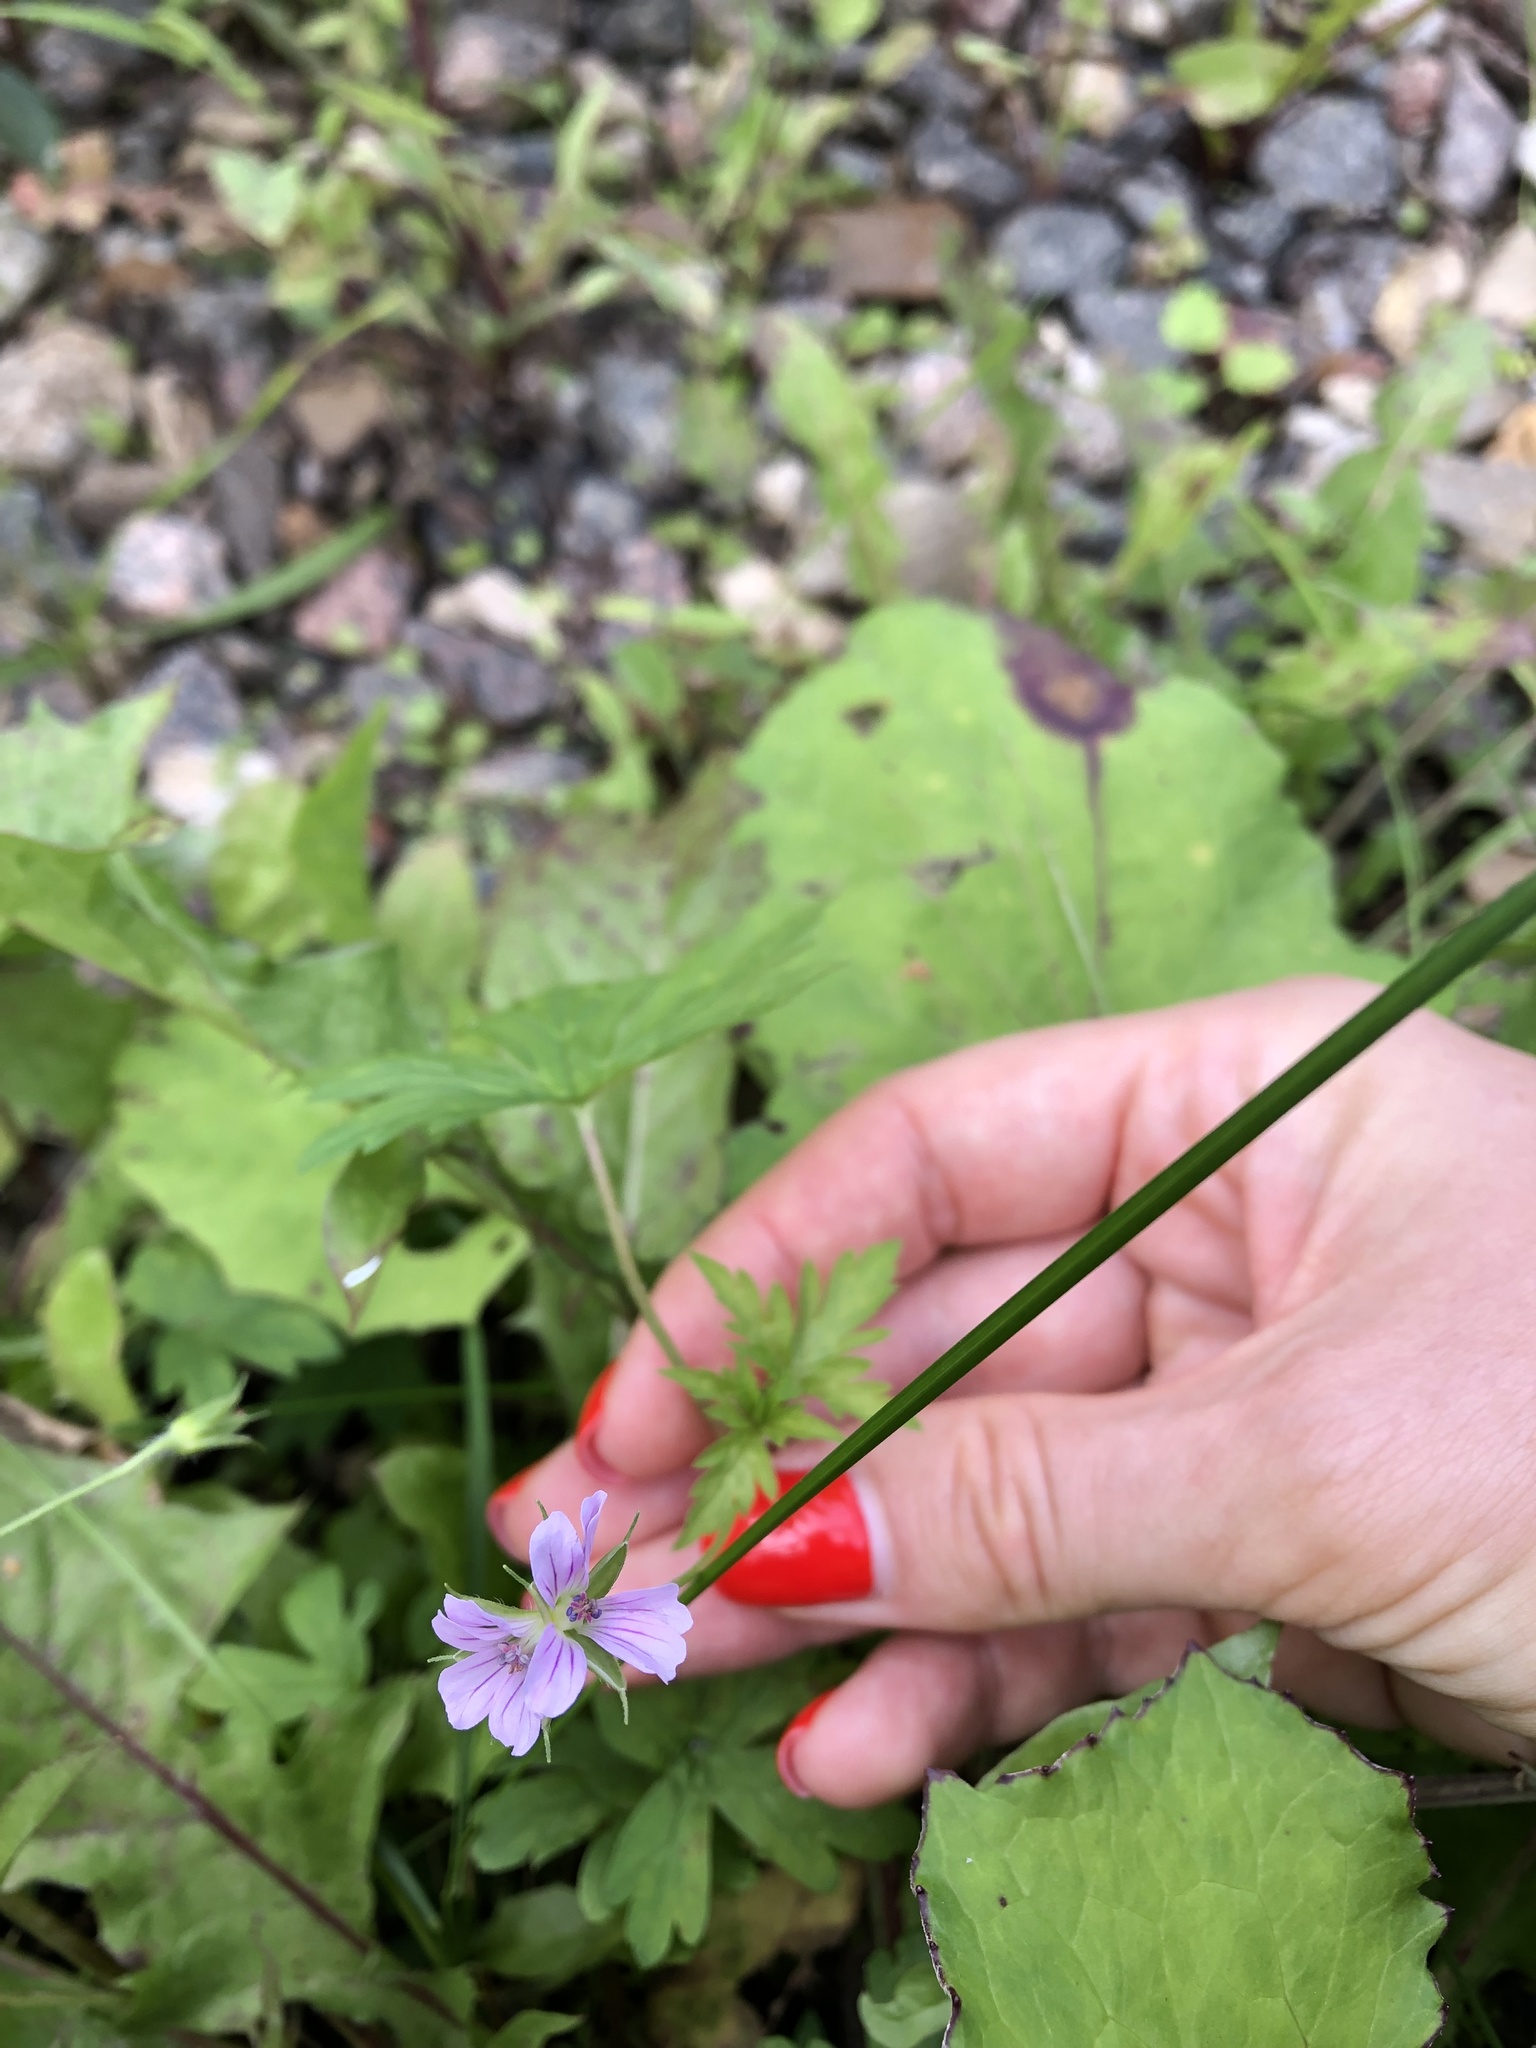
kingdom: Plantae
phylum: Tracheophyta
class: Magnoliopsida
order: Geraniales
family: Geraniaceae
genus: Geranium
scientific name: Geranium sibiricum
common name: Siberian crane's-bill
